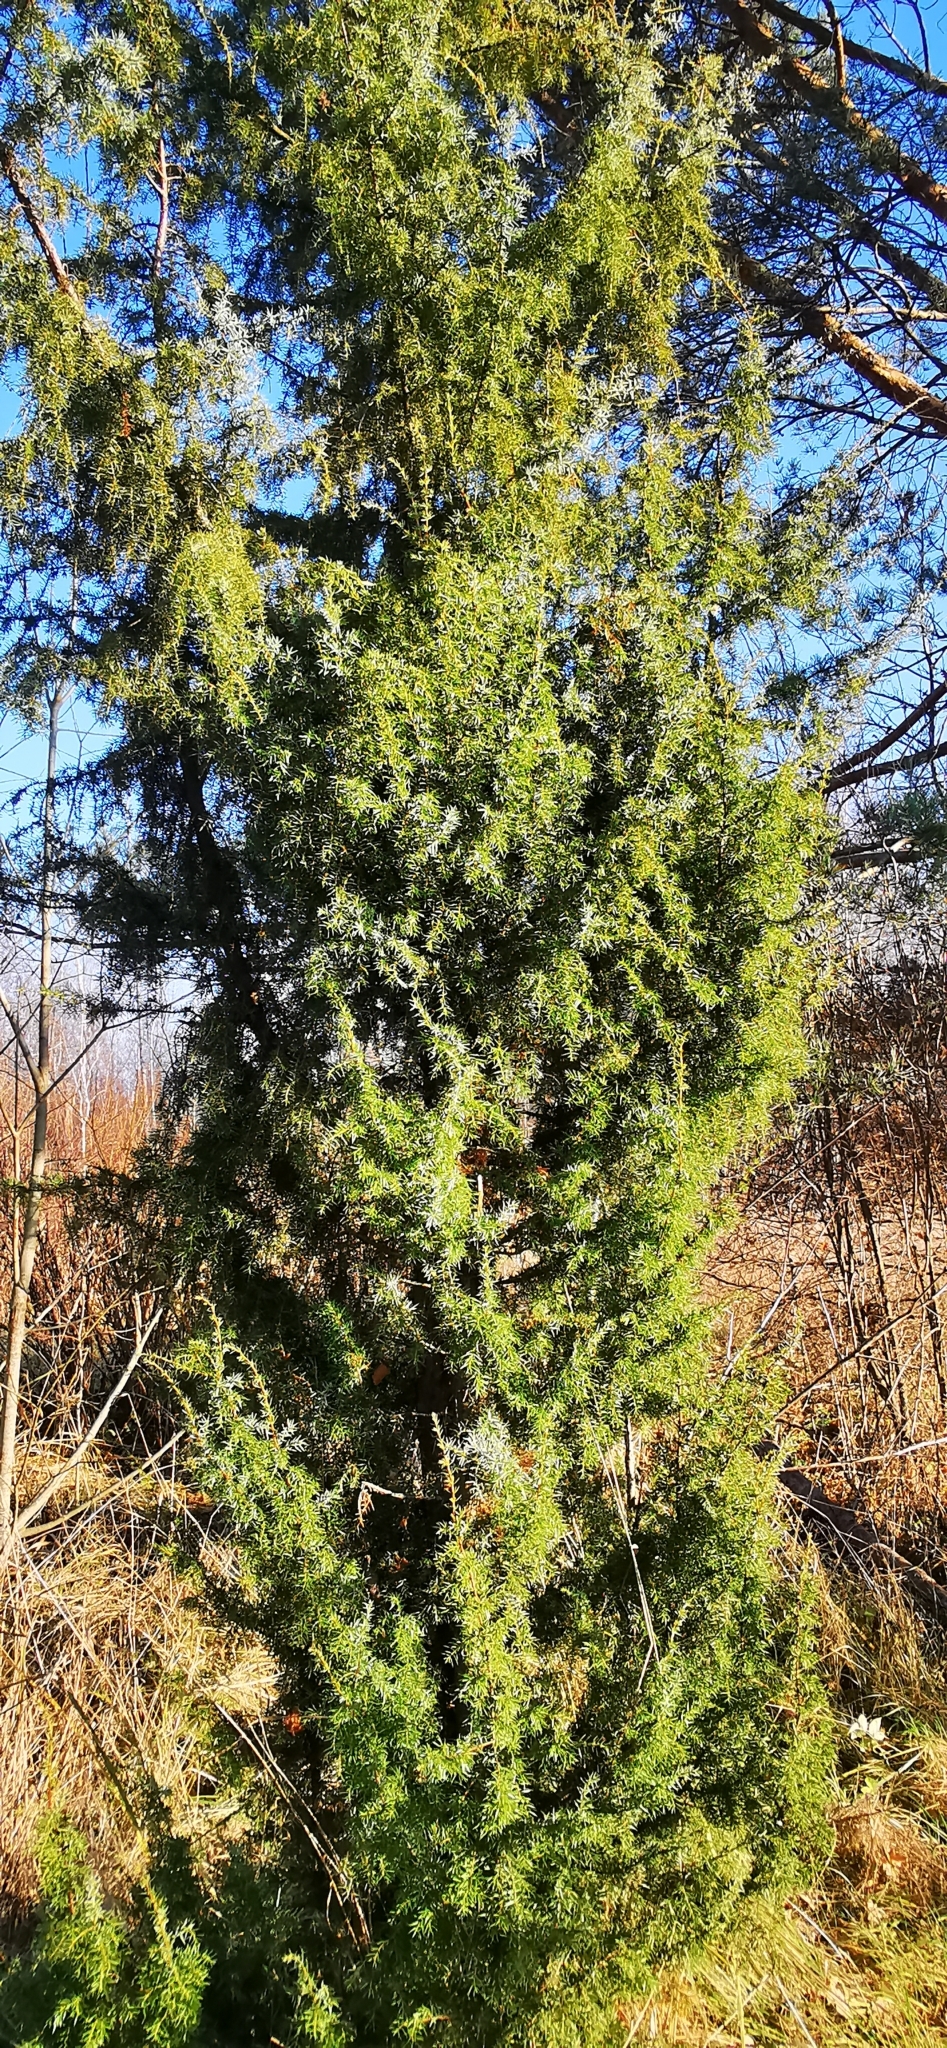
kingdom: Plantae
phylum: Tracheophyta
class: Pinopsida
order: Pinales
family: Cupressaceae
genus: Juniperus
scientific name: Juniperus communis
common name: Common juniper
